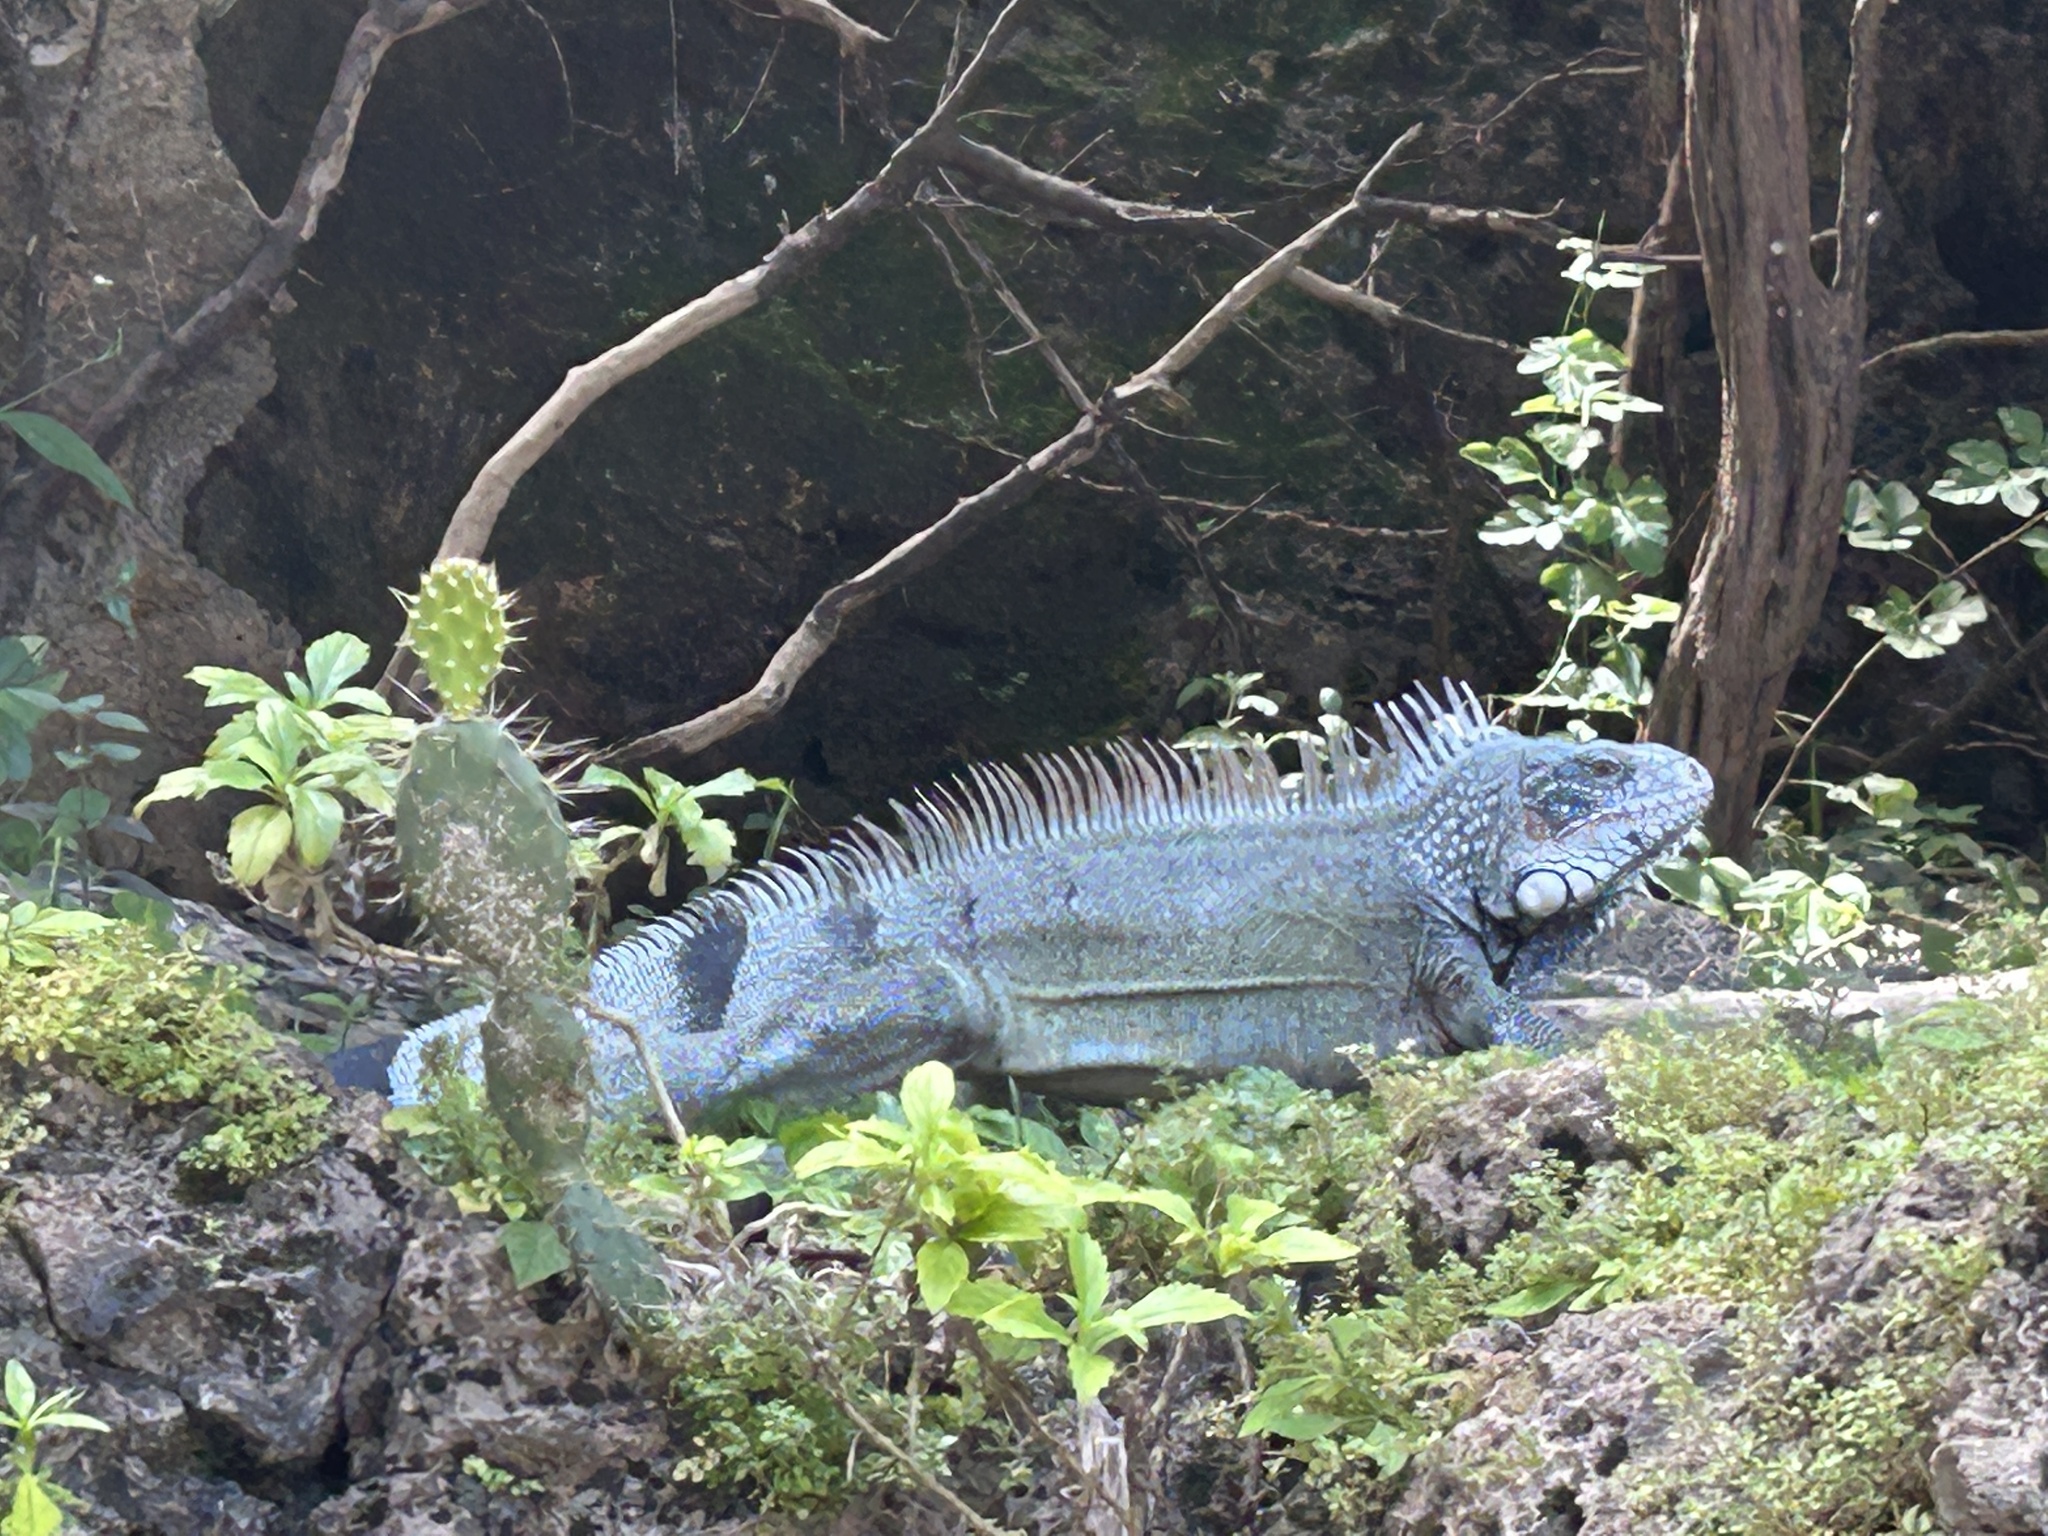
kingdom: Animalia
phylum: Chordata
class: Squamata
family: Iguanidae
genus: Iguana
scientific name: Iguana iguana
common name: Green iguana
